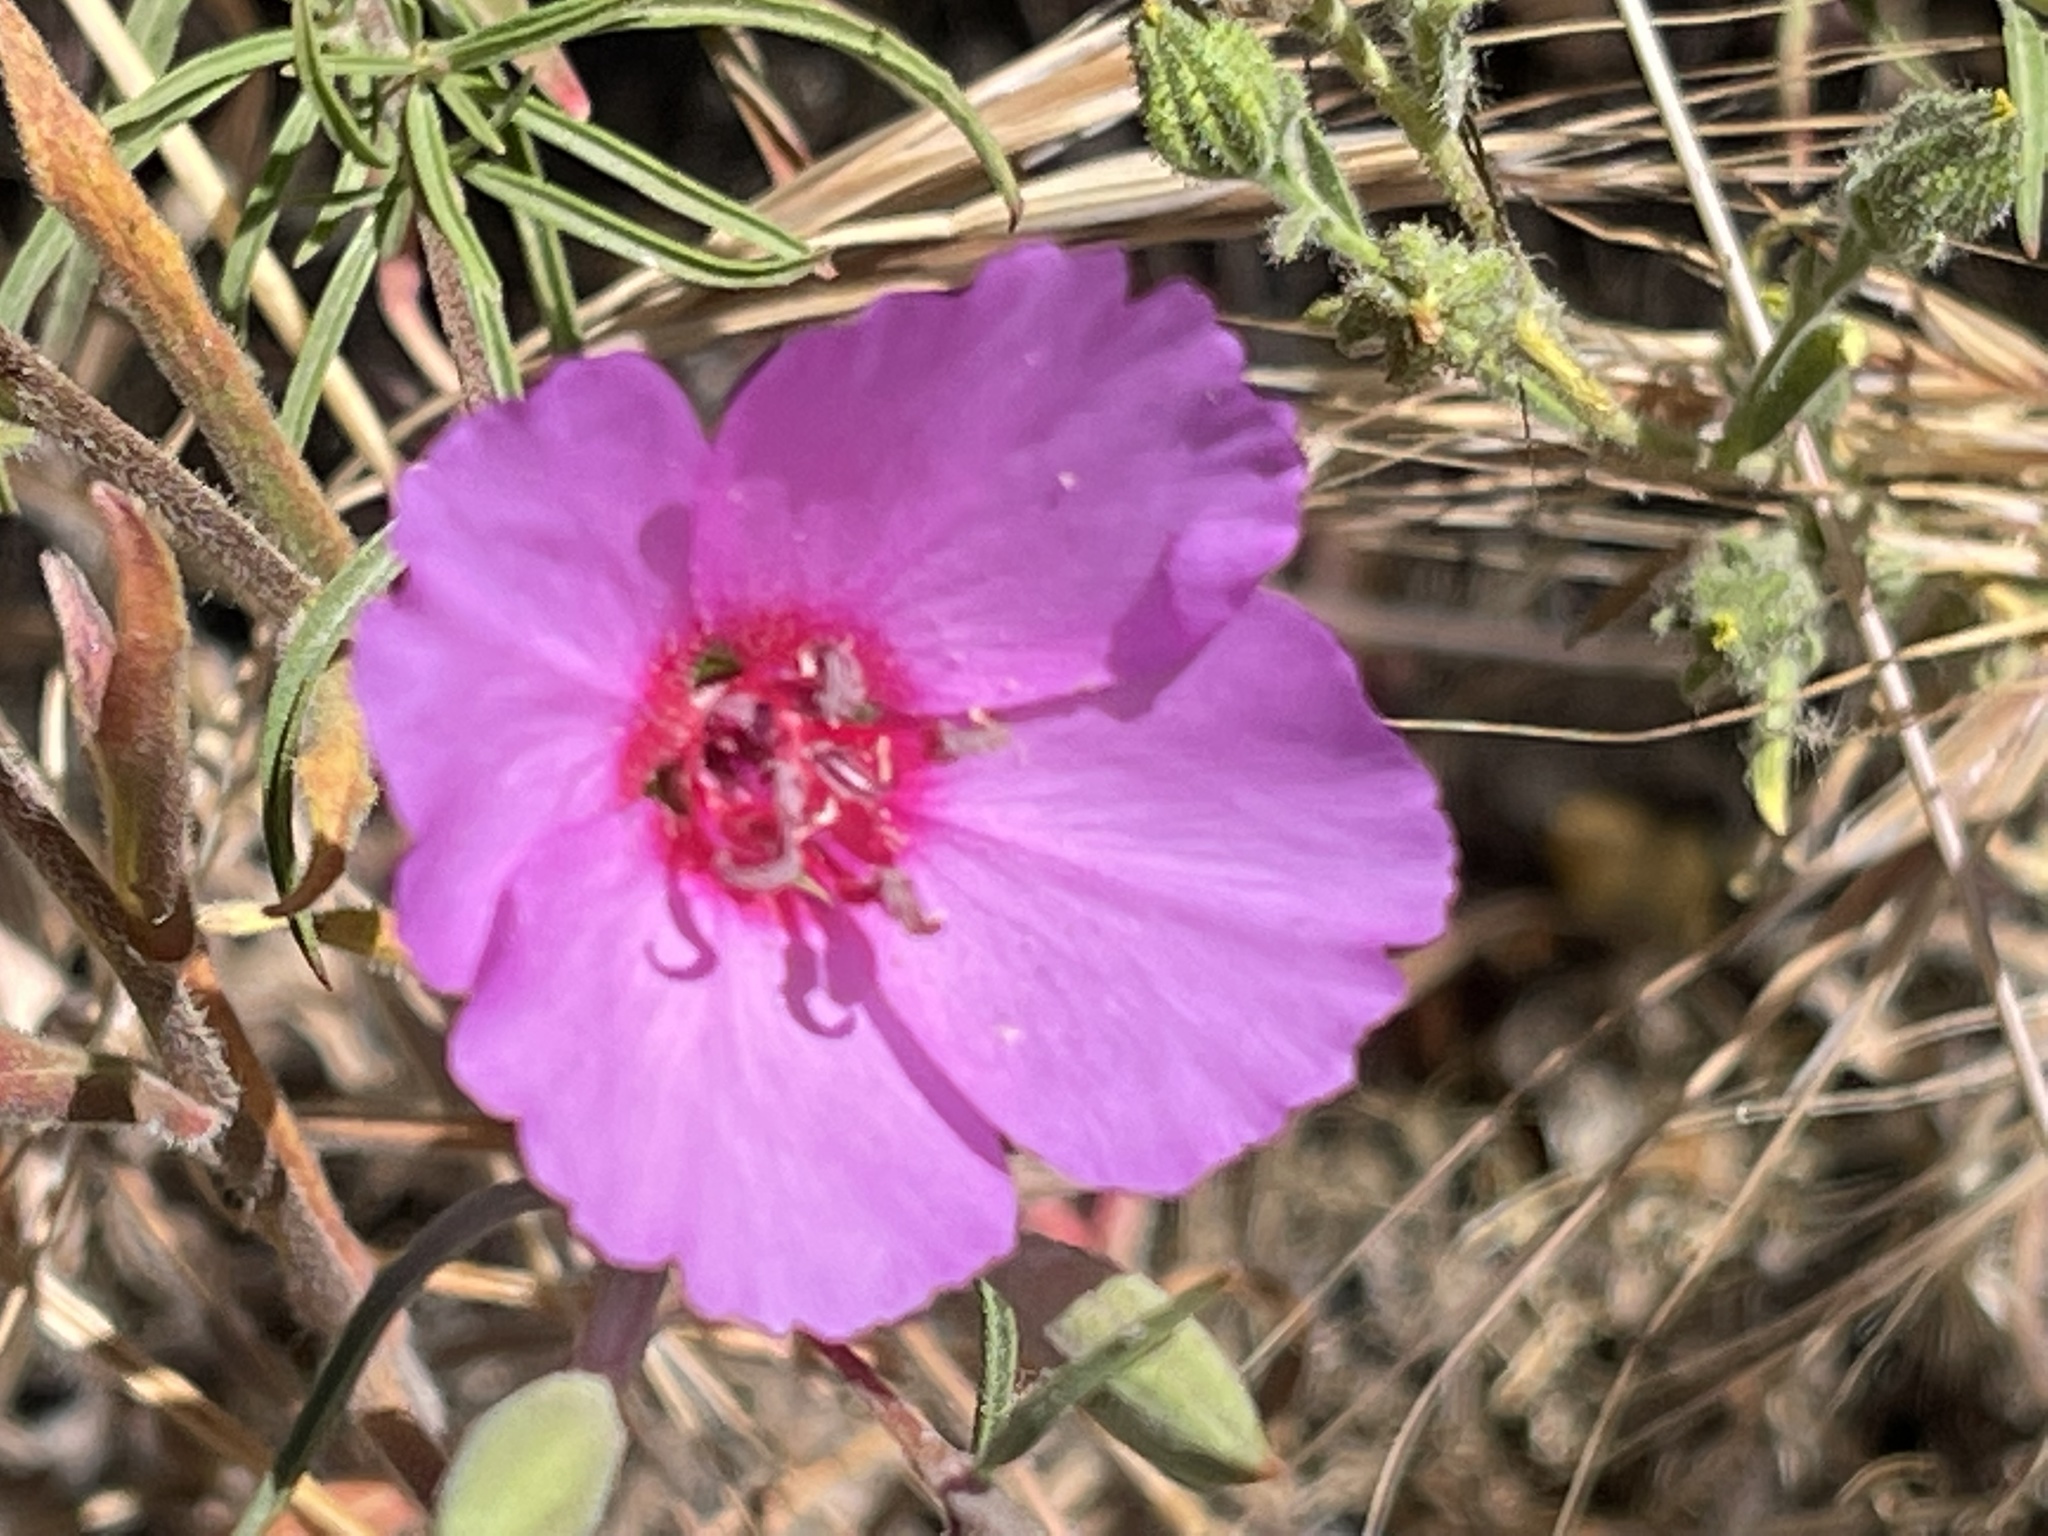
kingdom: Plantae
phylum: Tracheophyta
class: Magnoliopsida
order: Myrtales
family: Onagraceae
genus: Clarkia
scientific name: Clarkia rubicunda
